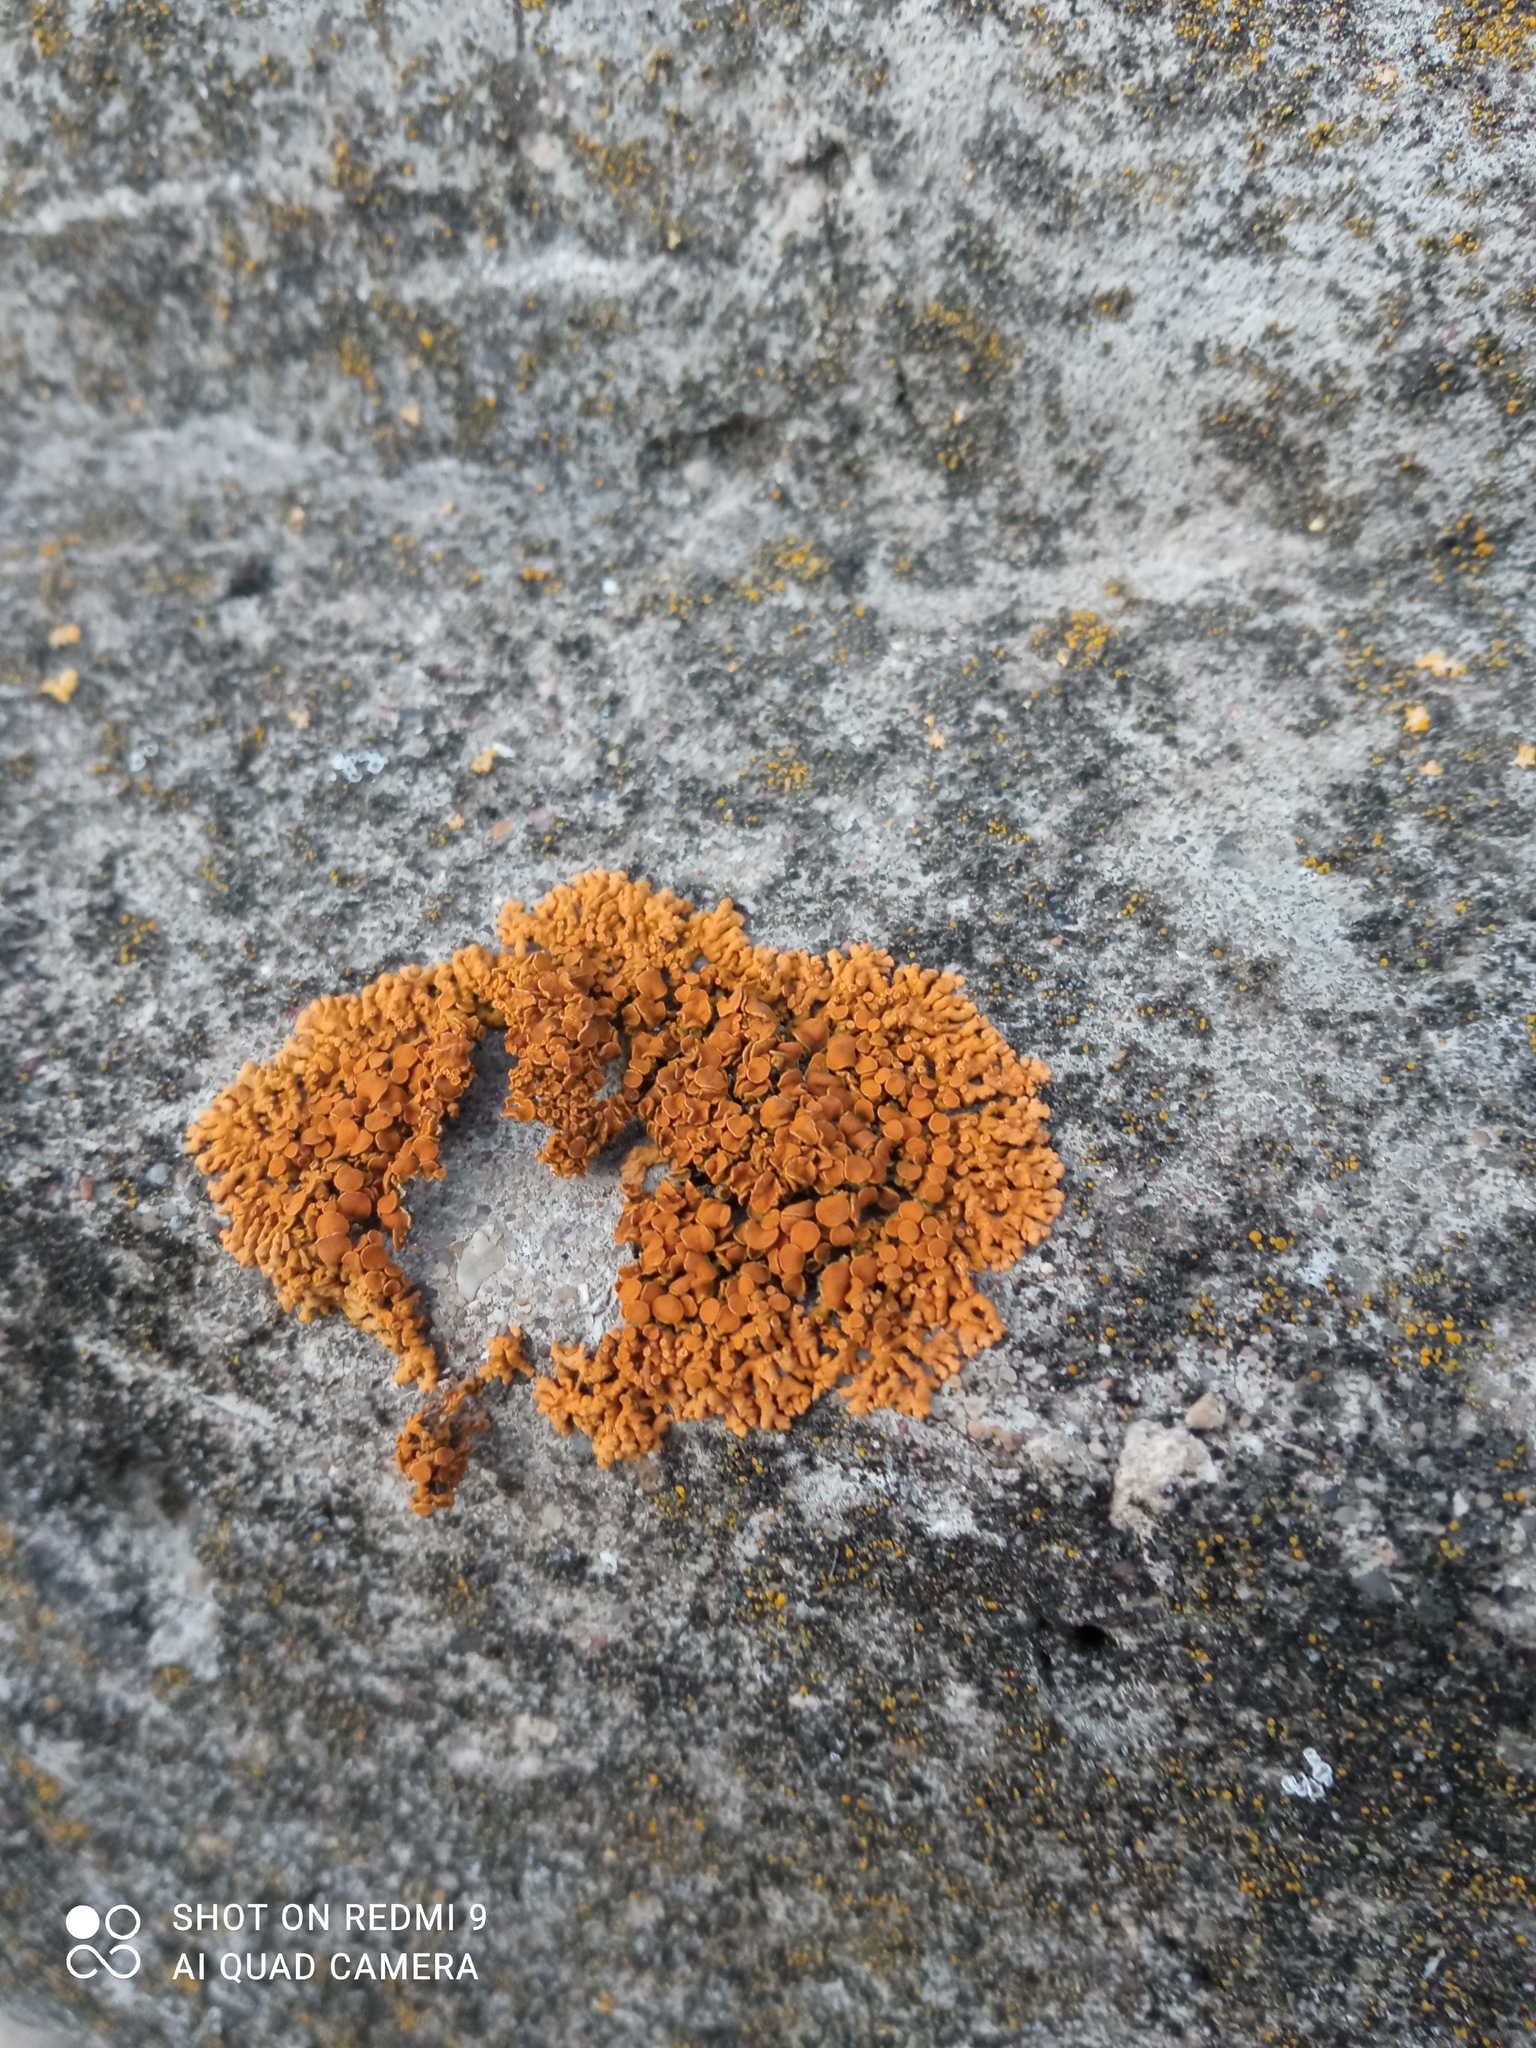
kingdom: Fungi
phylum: Ascomycota
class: Lecanoromycetes
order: Teloschistales
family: Teloschistaceae
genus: Xanthoria
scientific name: Xanthoria elegans
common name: Elegant sunburst lichen
